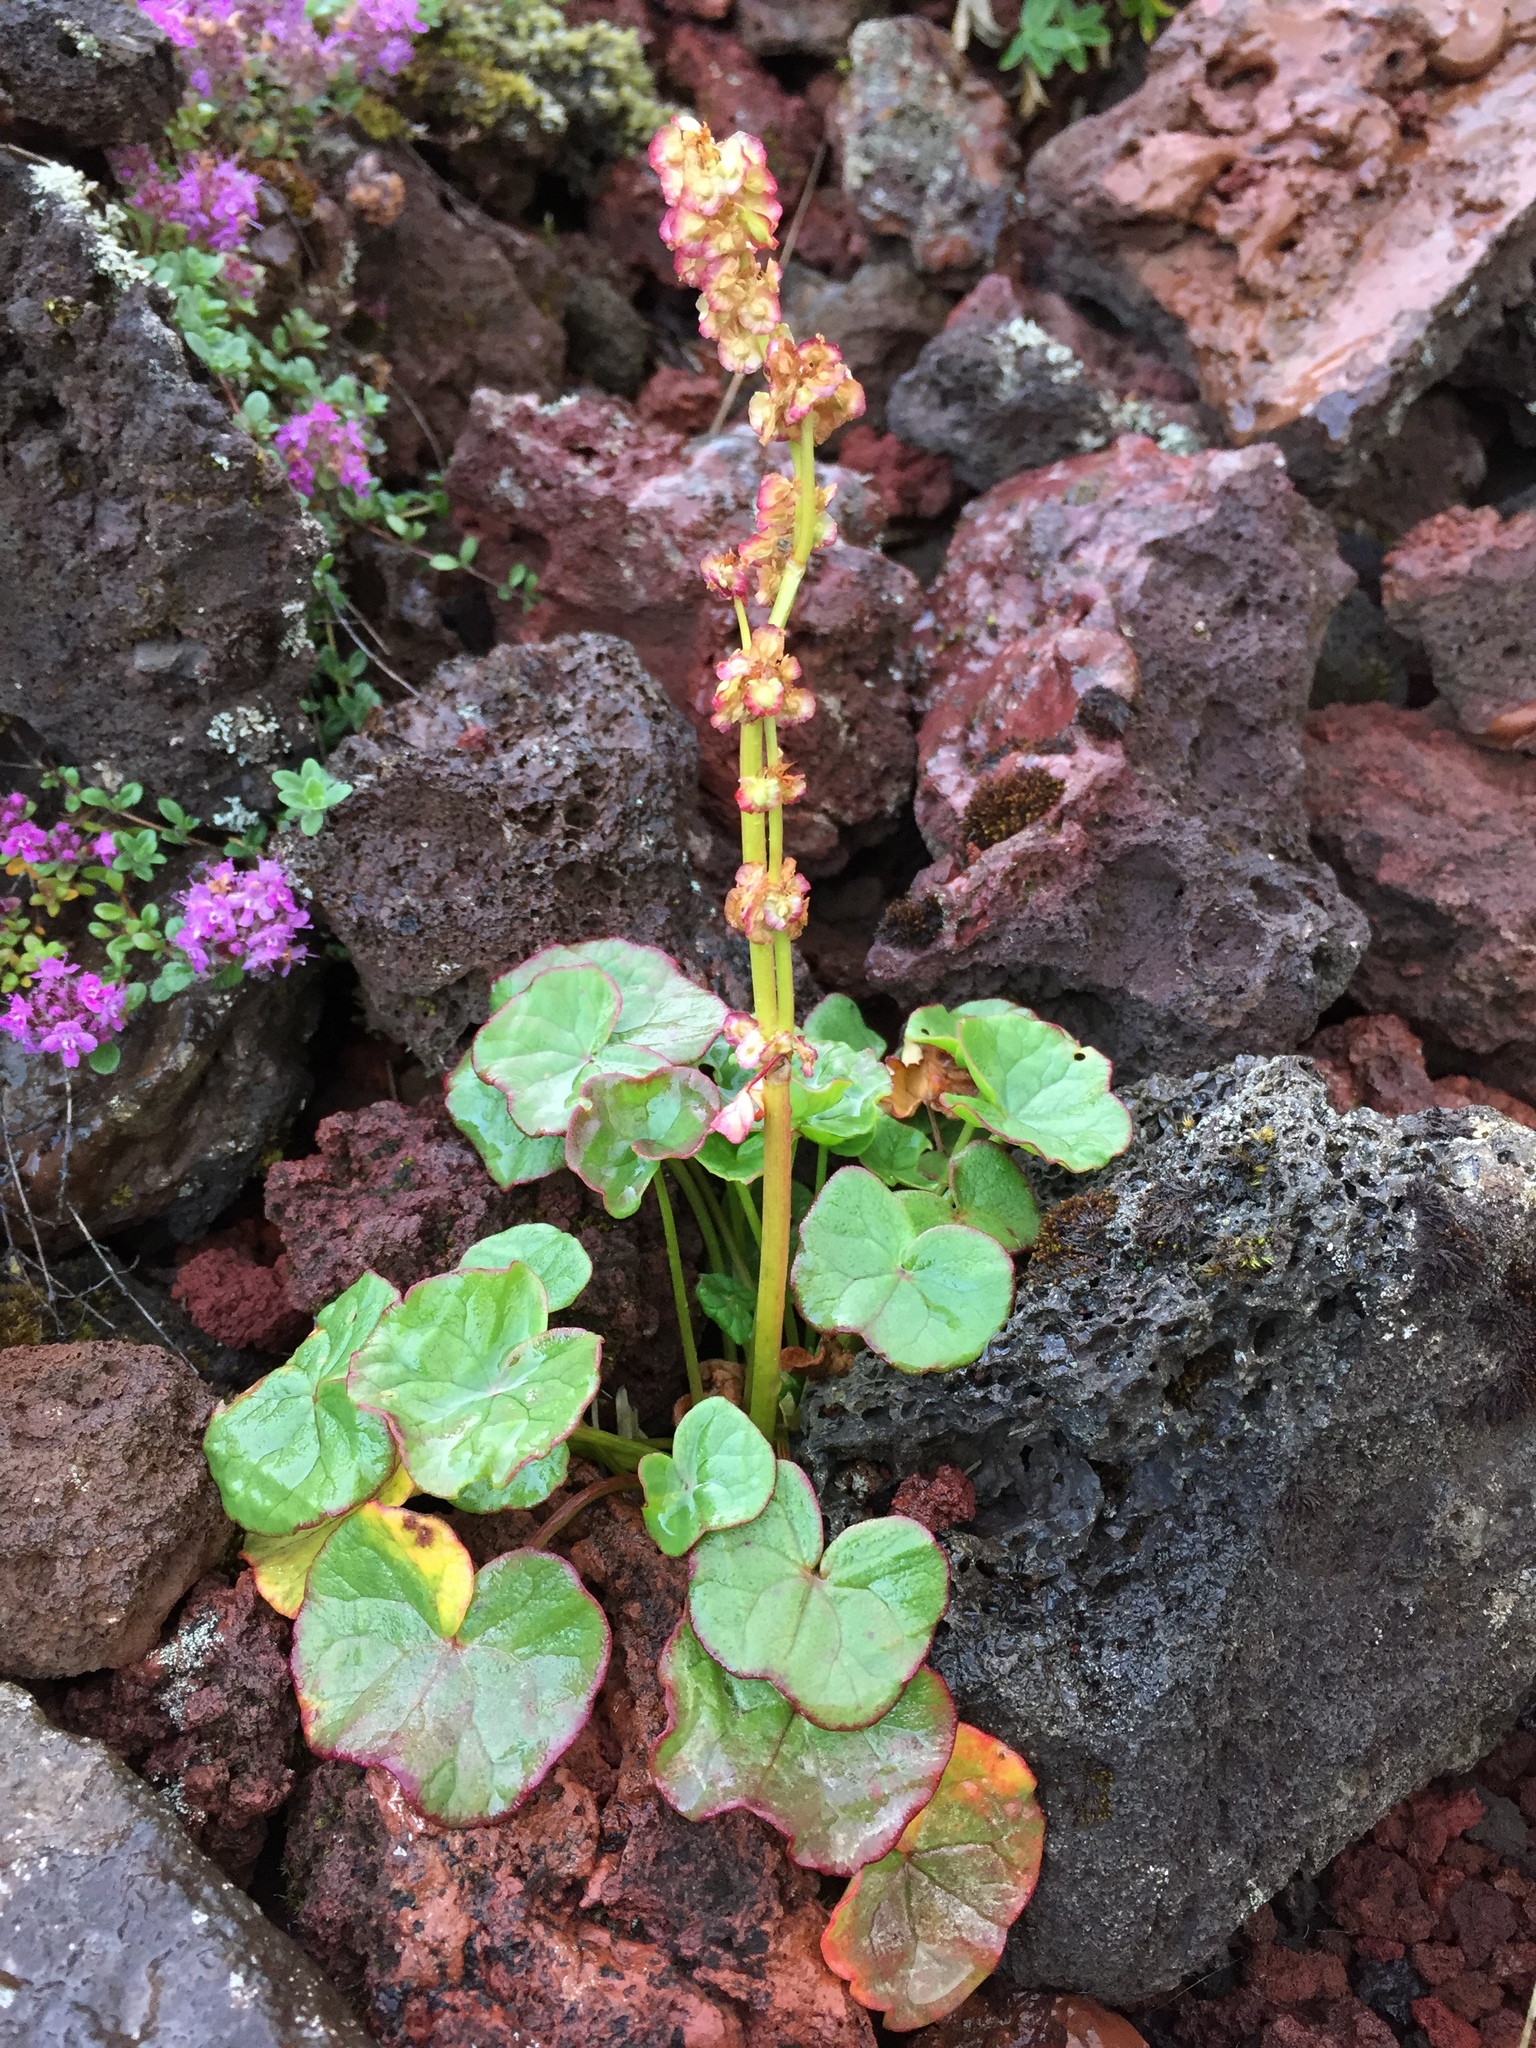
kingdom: Plantae
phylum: Tracheophyta
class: Magnoliopsida
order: Caryophyllales
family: Polygonaceae
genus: Oxyria
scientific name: Oxyria digyna
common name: Alpine mountain-sorrel
